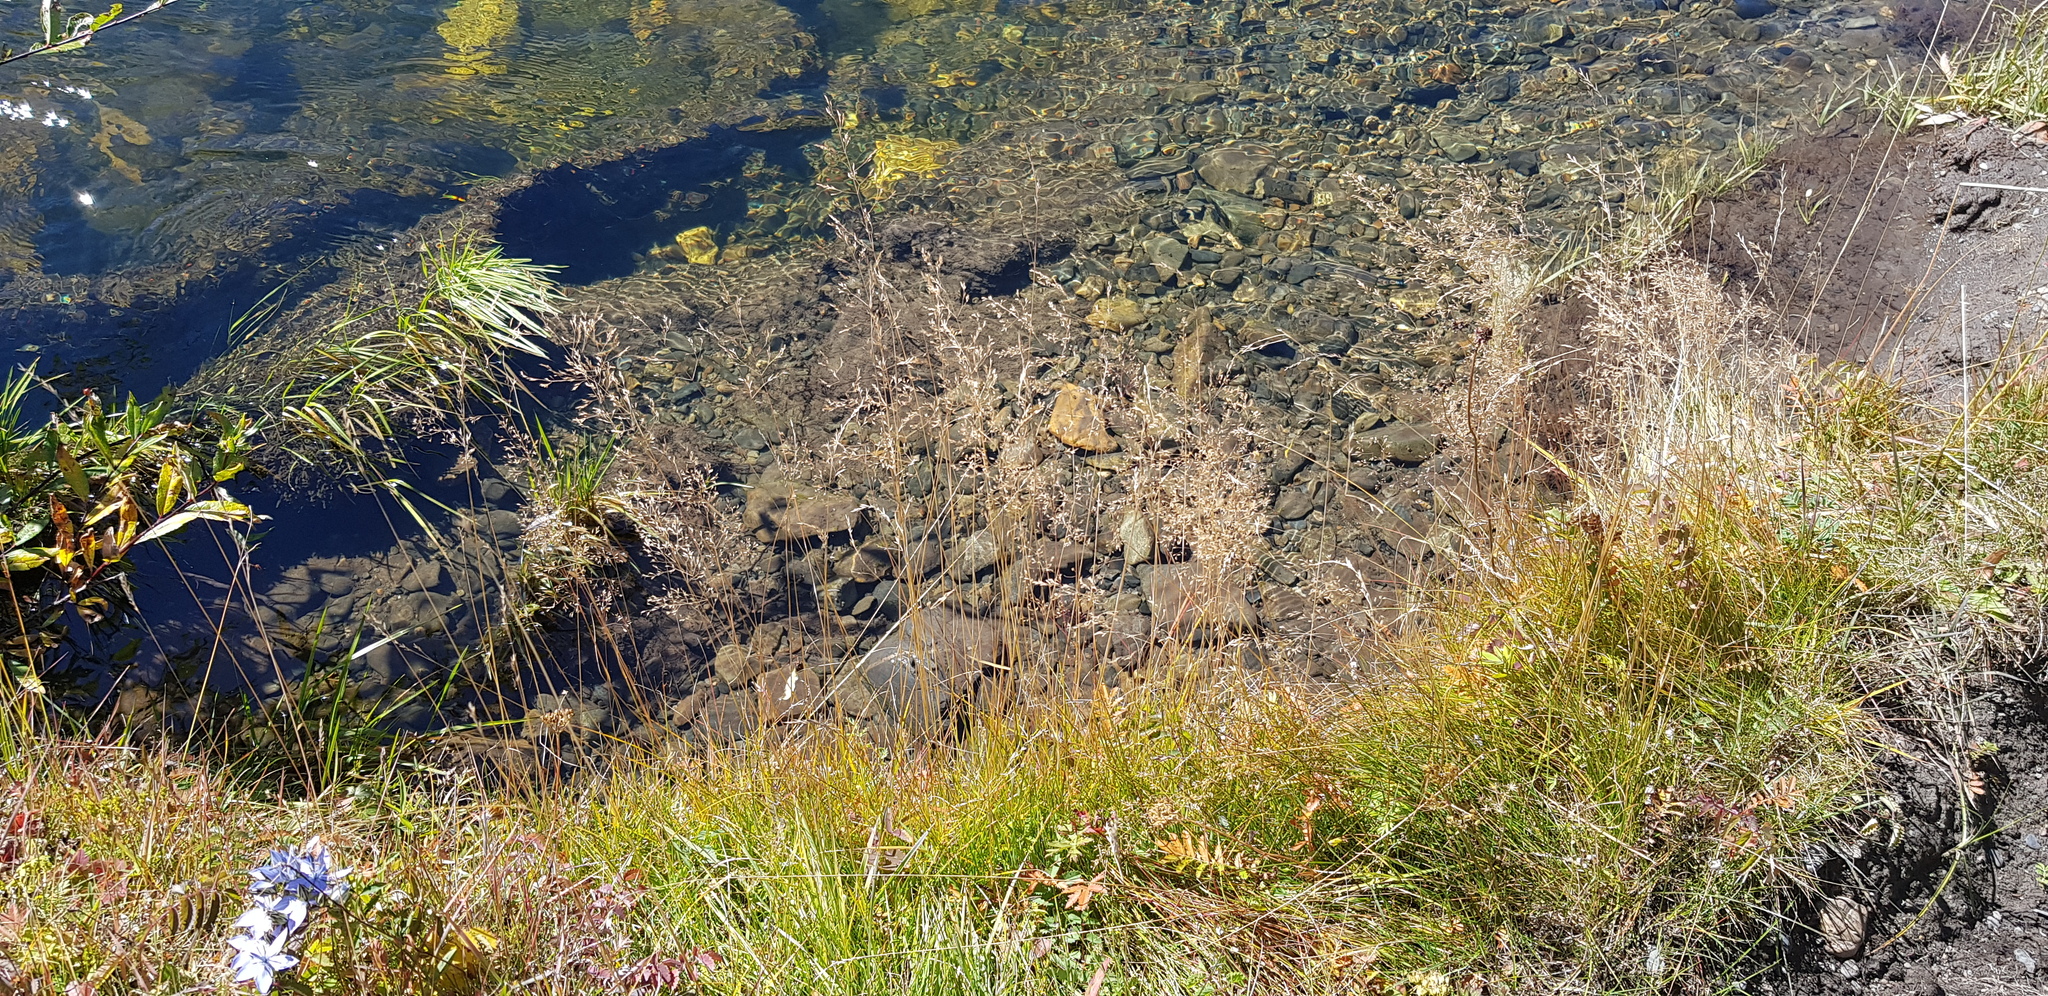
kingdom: Plantae
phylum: Tracheophyta
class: Liliopsida
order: Poales
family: Poaceae
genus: Poa
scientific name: Poa pratensis
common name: Kentucky bluegrass
